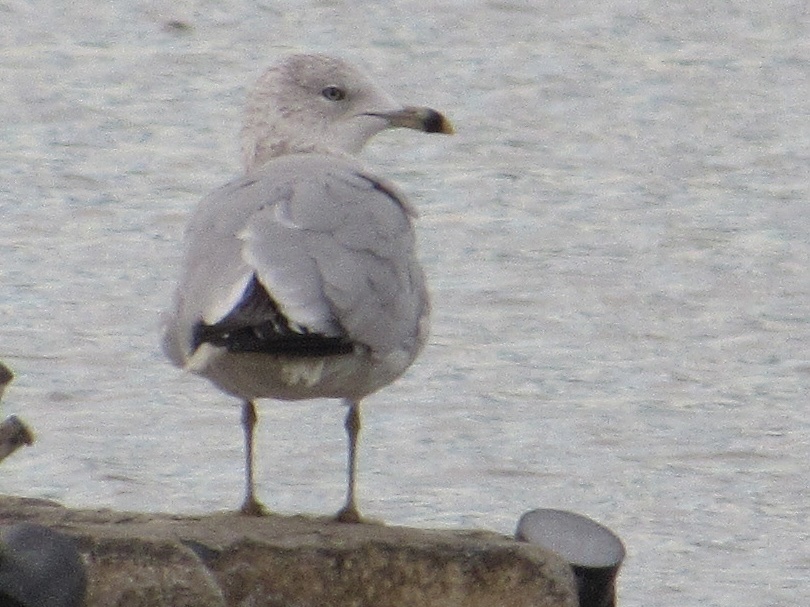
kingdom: Animalia
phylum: Chordata
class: Aves
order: Charadriiformes
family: Laridae
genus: Larus
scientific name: Larus delawarensis
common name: Ring-billed gull
